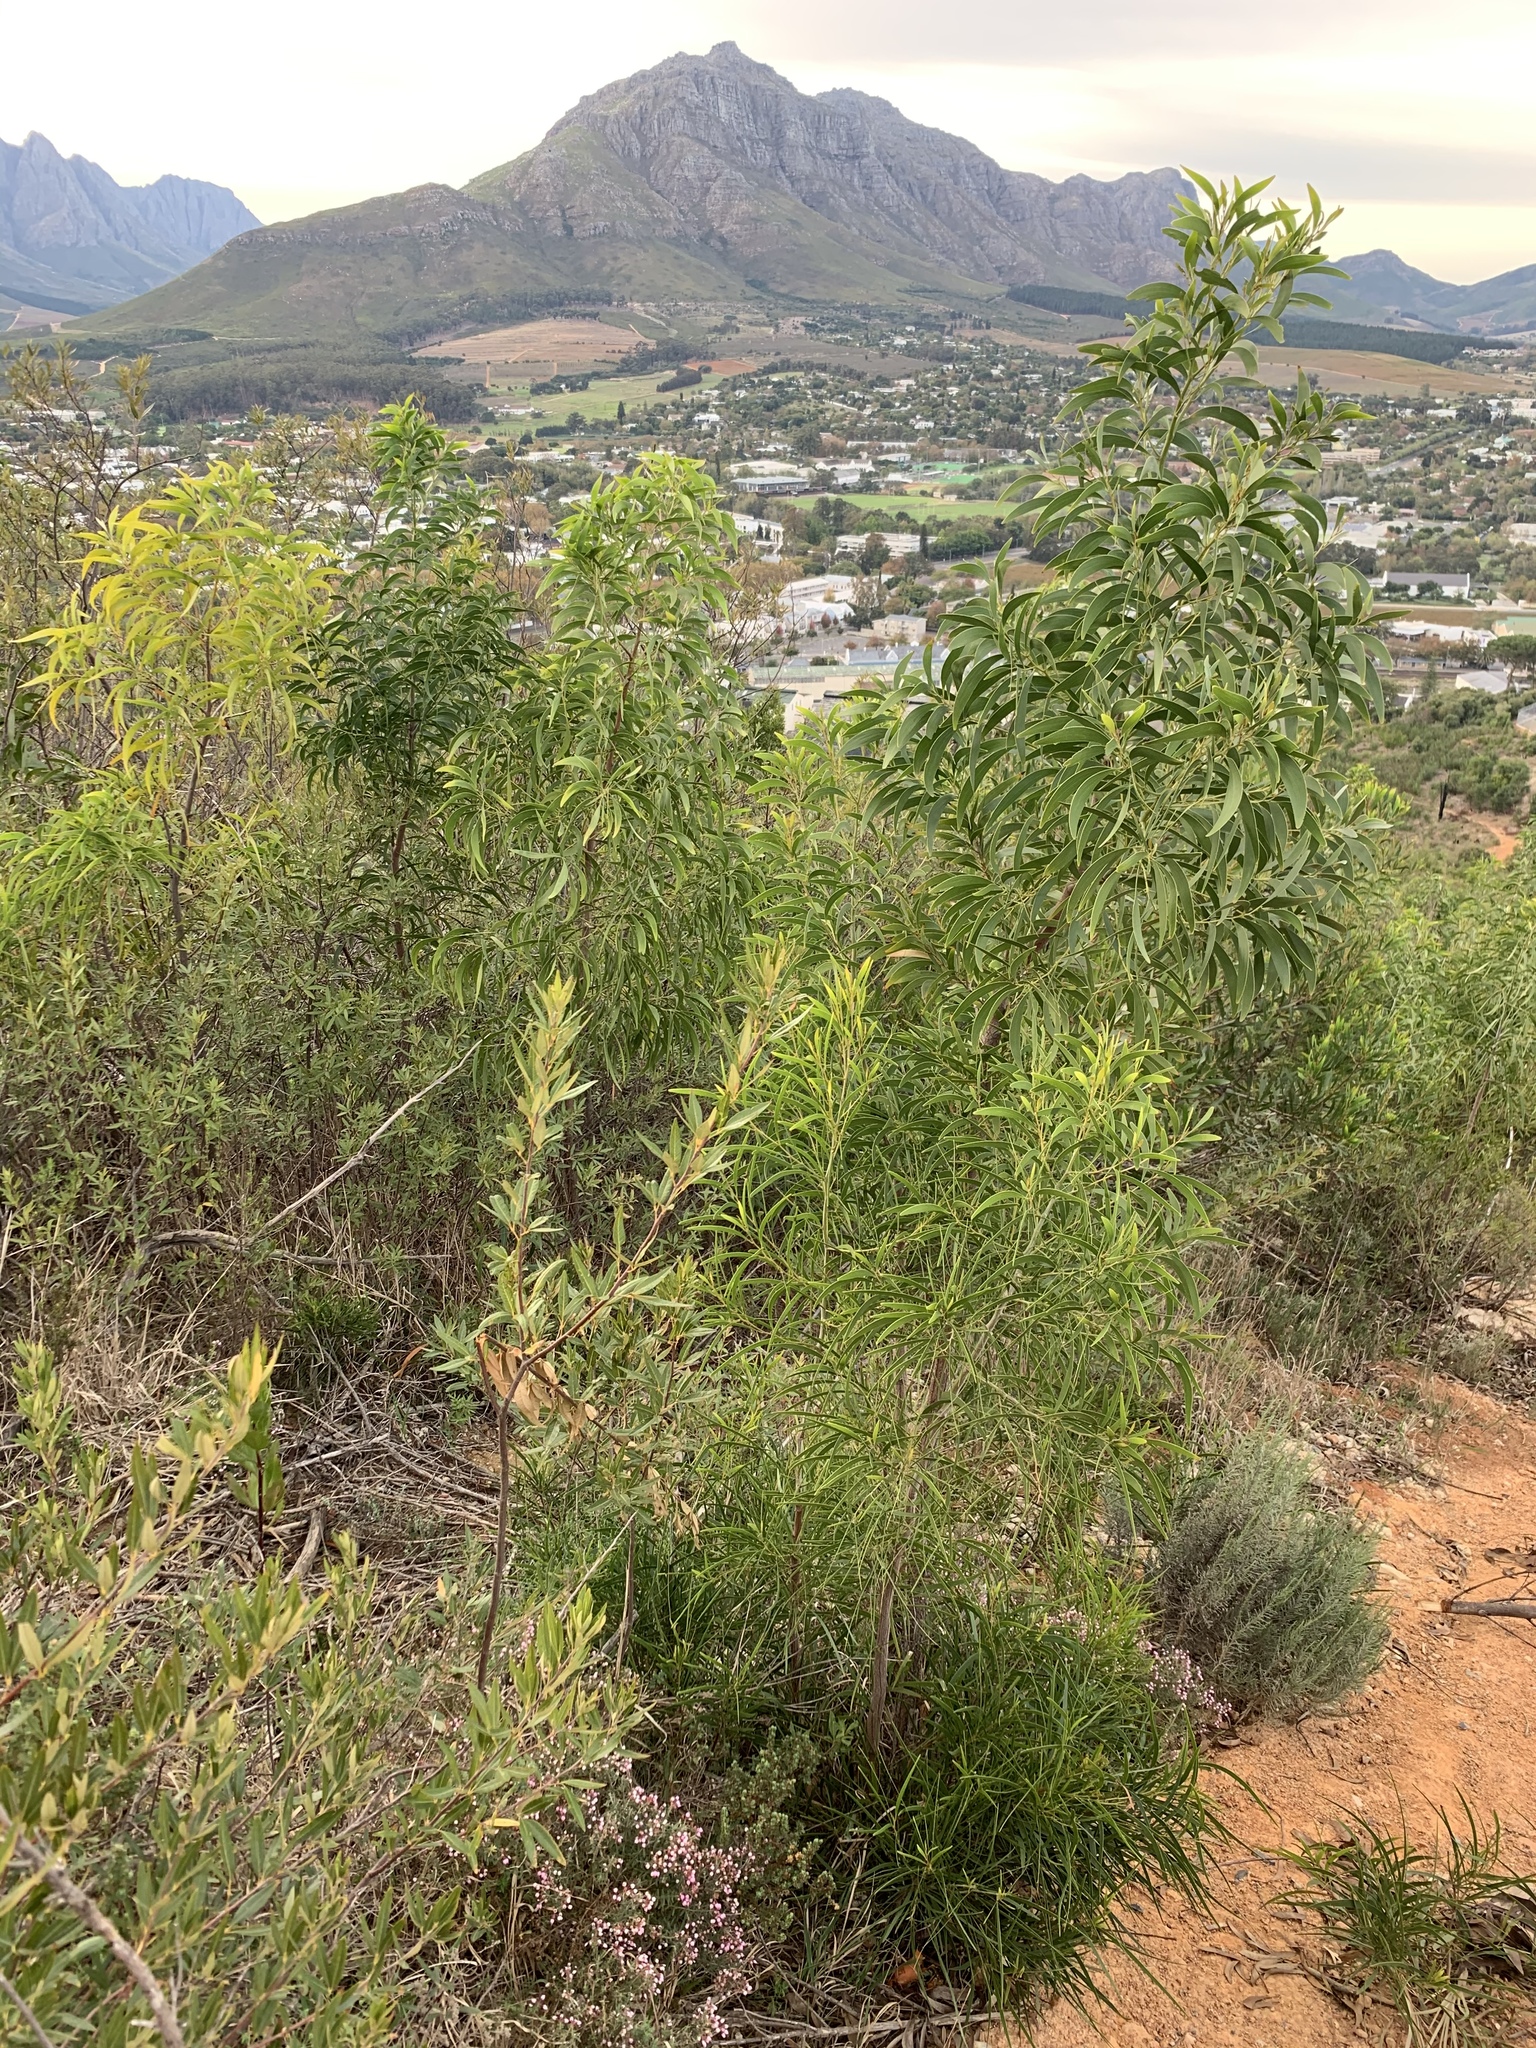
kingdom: Plantae
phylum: Tracheophyta
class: Magnoliopsida
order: Fabales
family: Fabaceae
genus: Acacia
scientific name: Acacia implexa
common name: Black wattle
